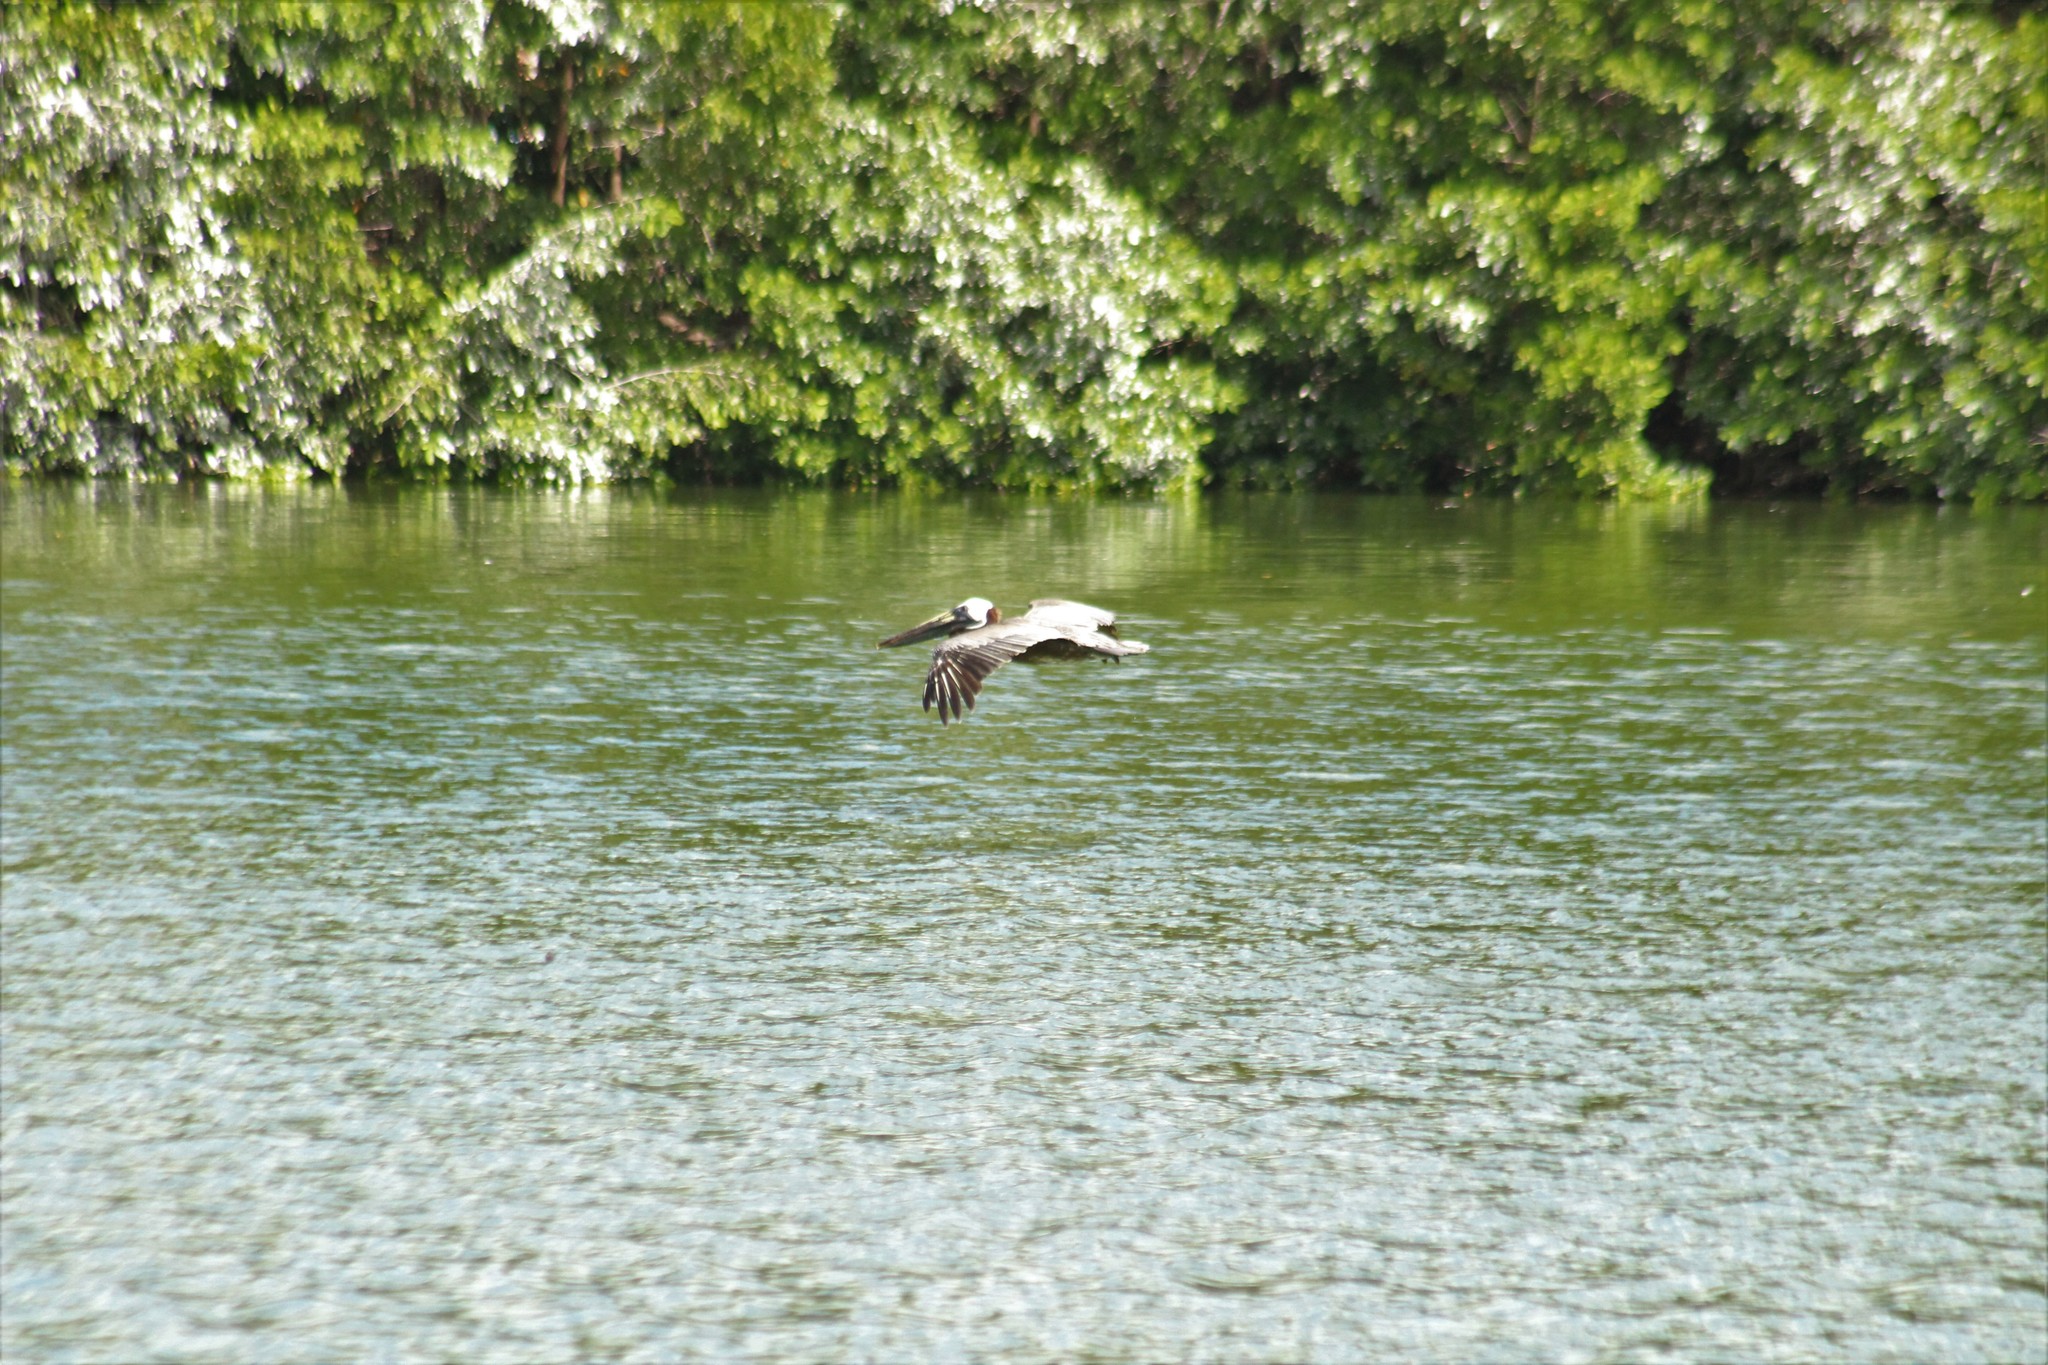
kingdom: Animalia
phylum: Chordata
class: Aves
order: Pelecaniformes
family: Pelecanidae
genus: Pelecanus
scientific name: Pelecanus occidentalis
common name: Brown pelican
